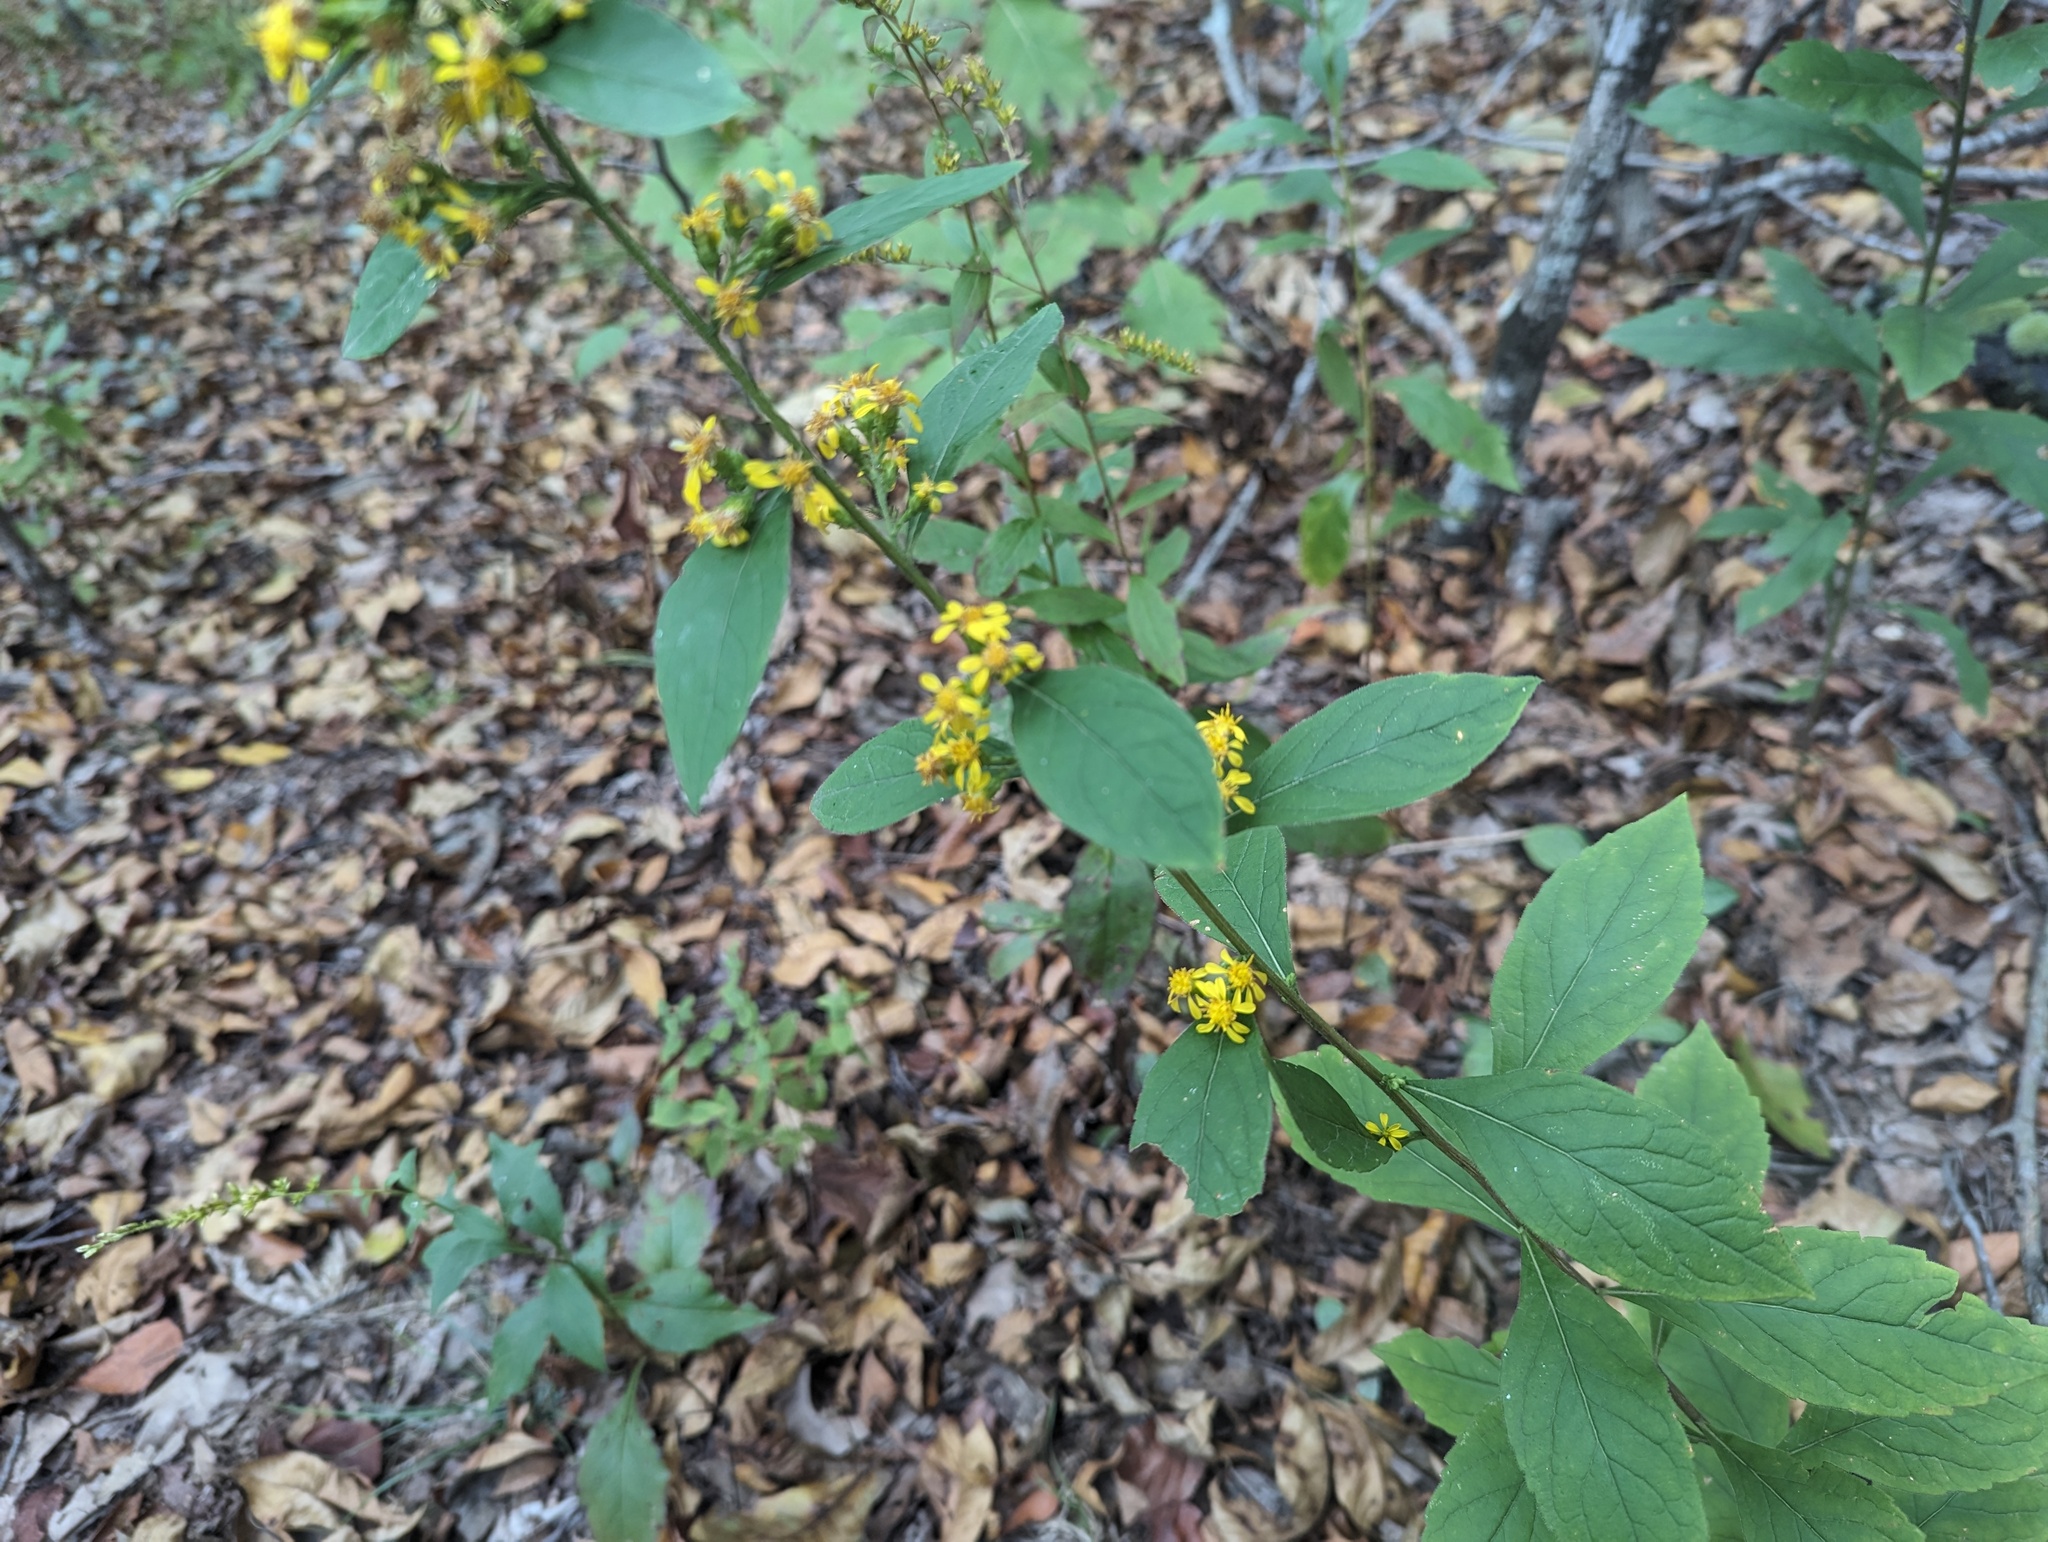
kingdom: Plantae
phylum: Tracheophyta
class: Magnoliopsida
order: Asterales
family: Asteraceae
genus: Solidago
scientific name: Solidago buckleyi
